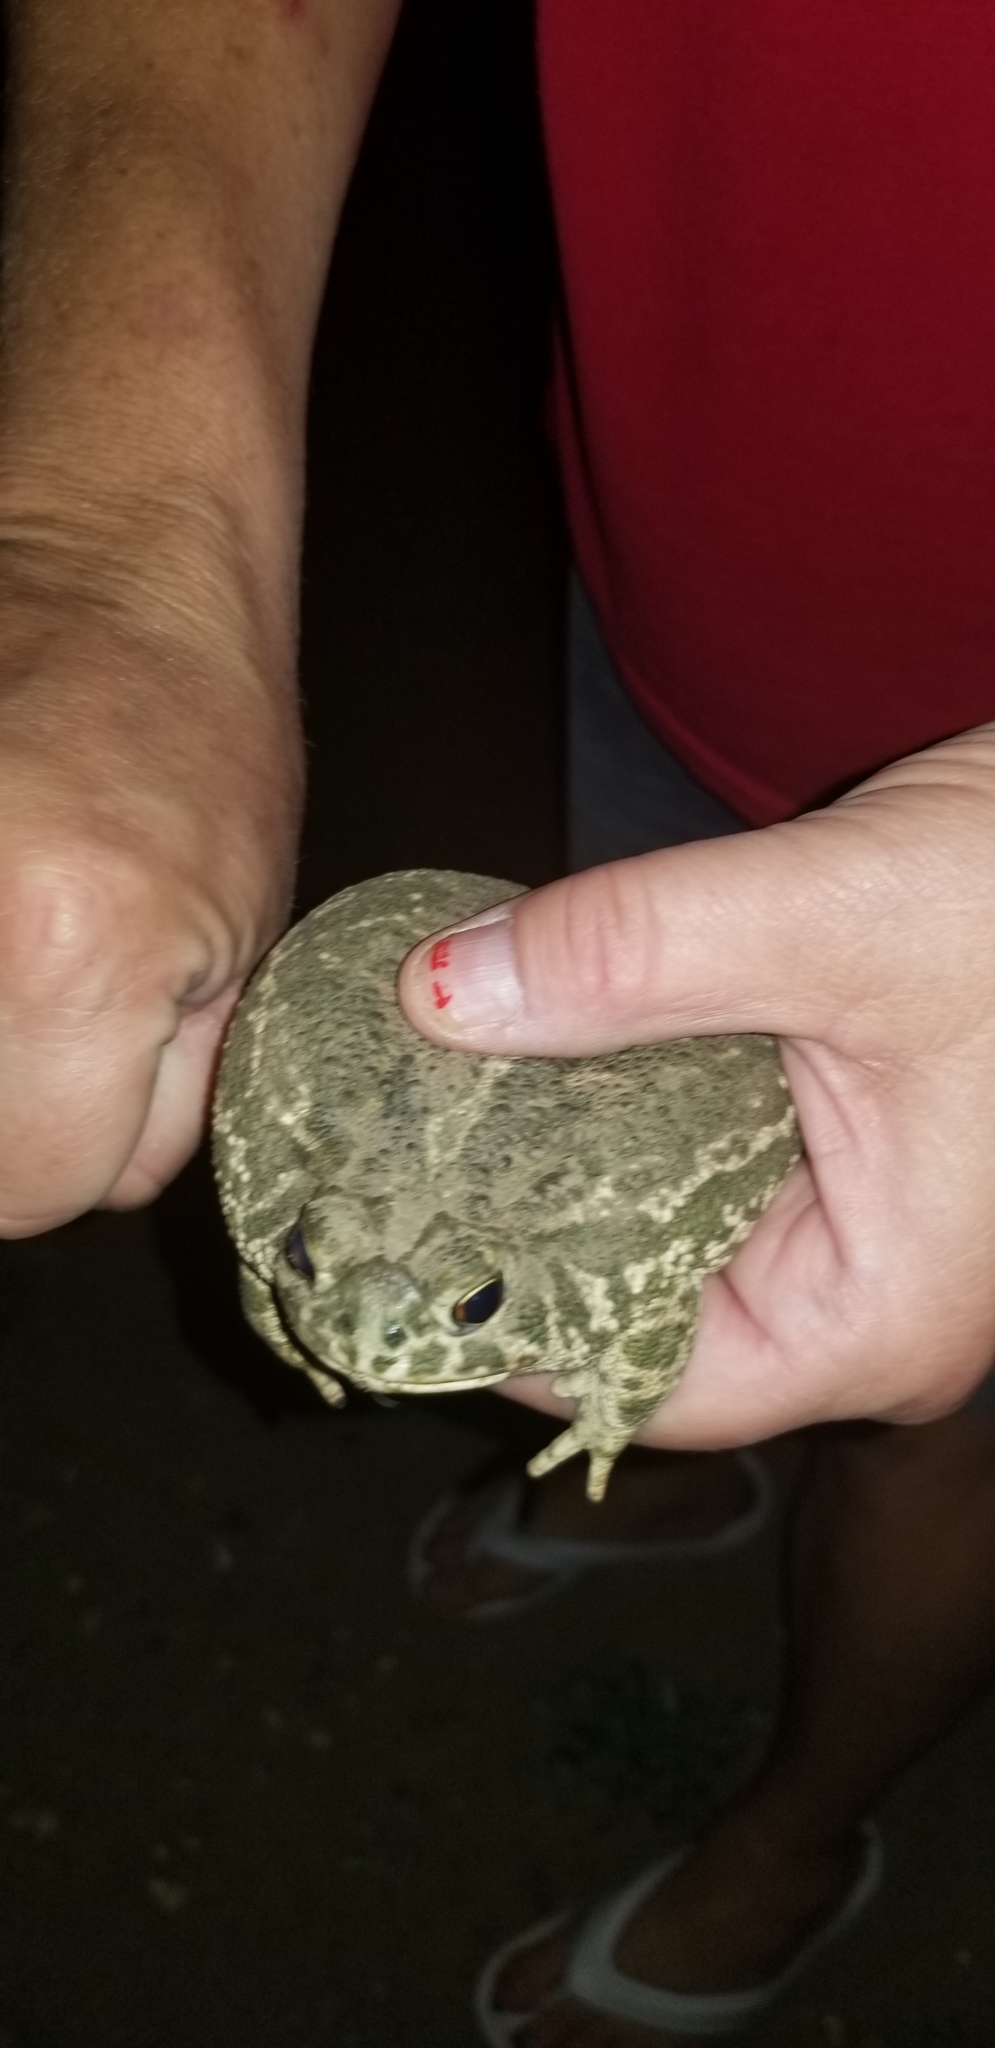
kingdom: Animalia
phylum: Chordata
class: Amphibia
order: Anura
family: Bufonidae
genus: Anaxyrus
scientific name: Anaxyrus cognatus
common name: Great plains toad
